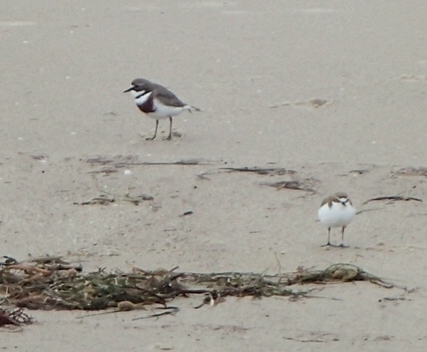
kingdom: Animalia
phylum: Chordata
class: Aves
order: Charadriiformes
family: Charadriidae
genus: Anarhynchus
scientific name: Anarhynchus
